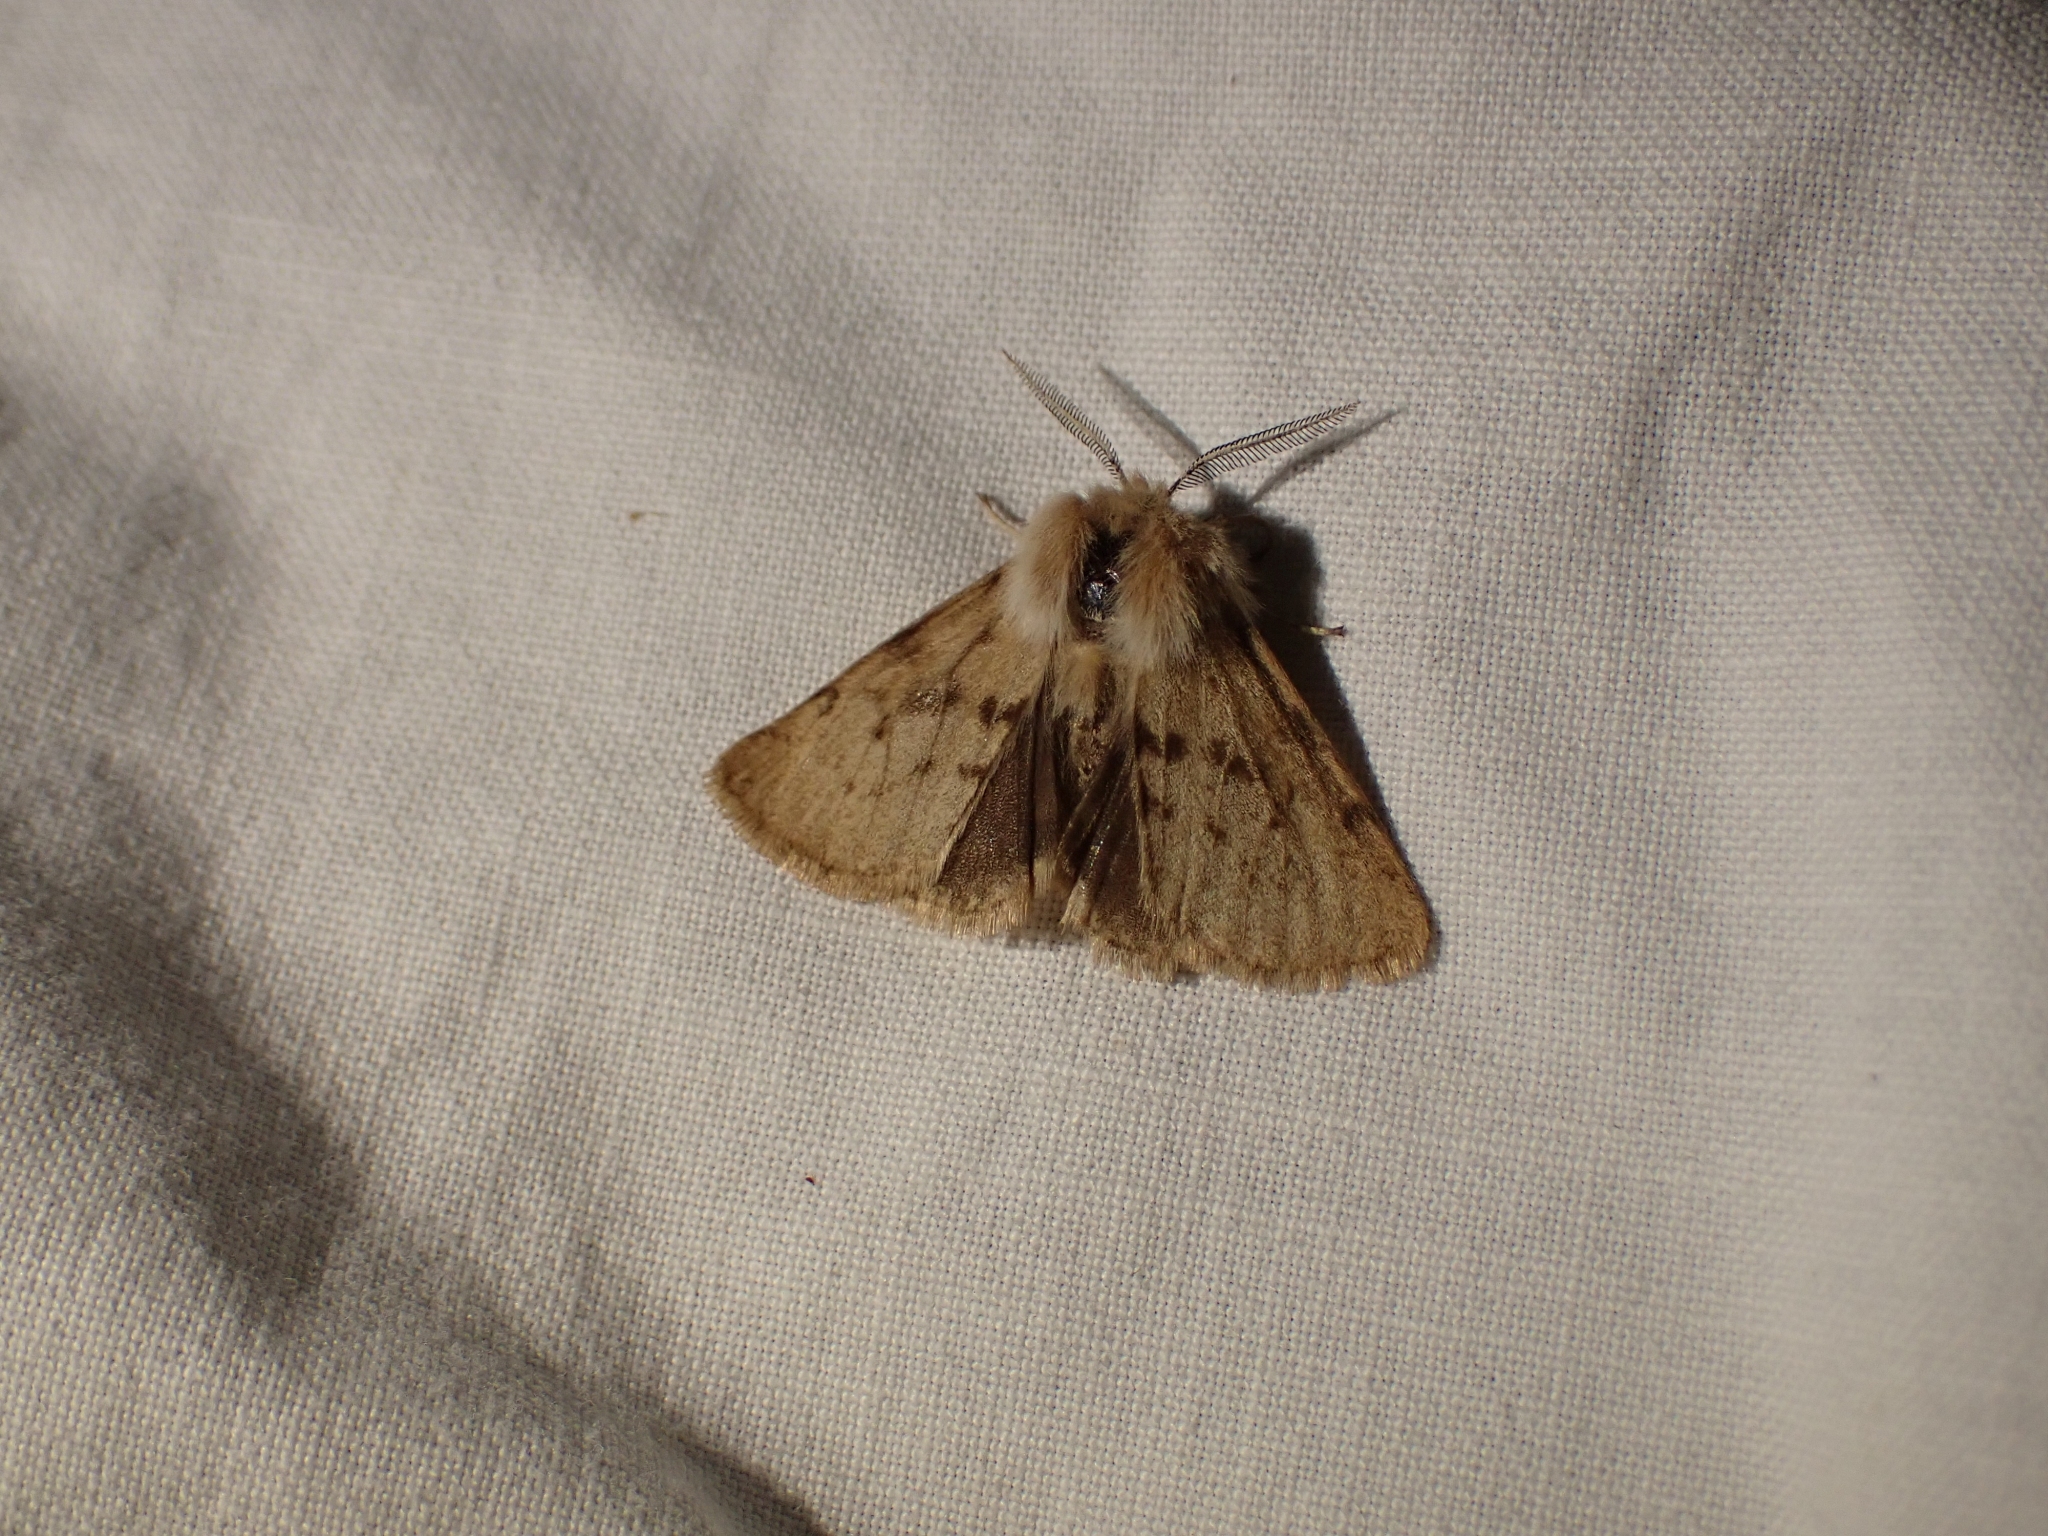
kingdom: Animalia
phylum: Arthropoda
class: Insecta
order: Lepidoptera
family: Erebidae
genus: Spilosoma
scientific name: Spilosoma vagans
